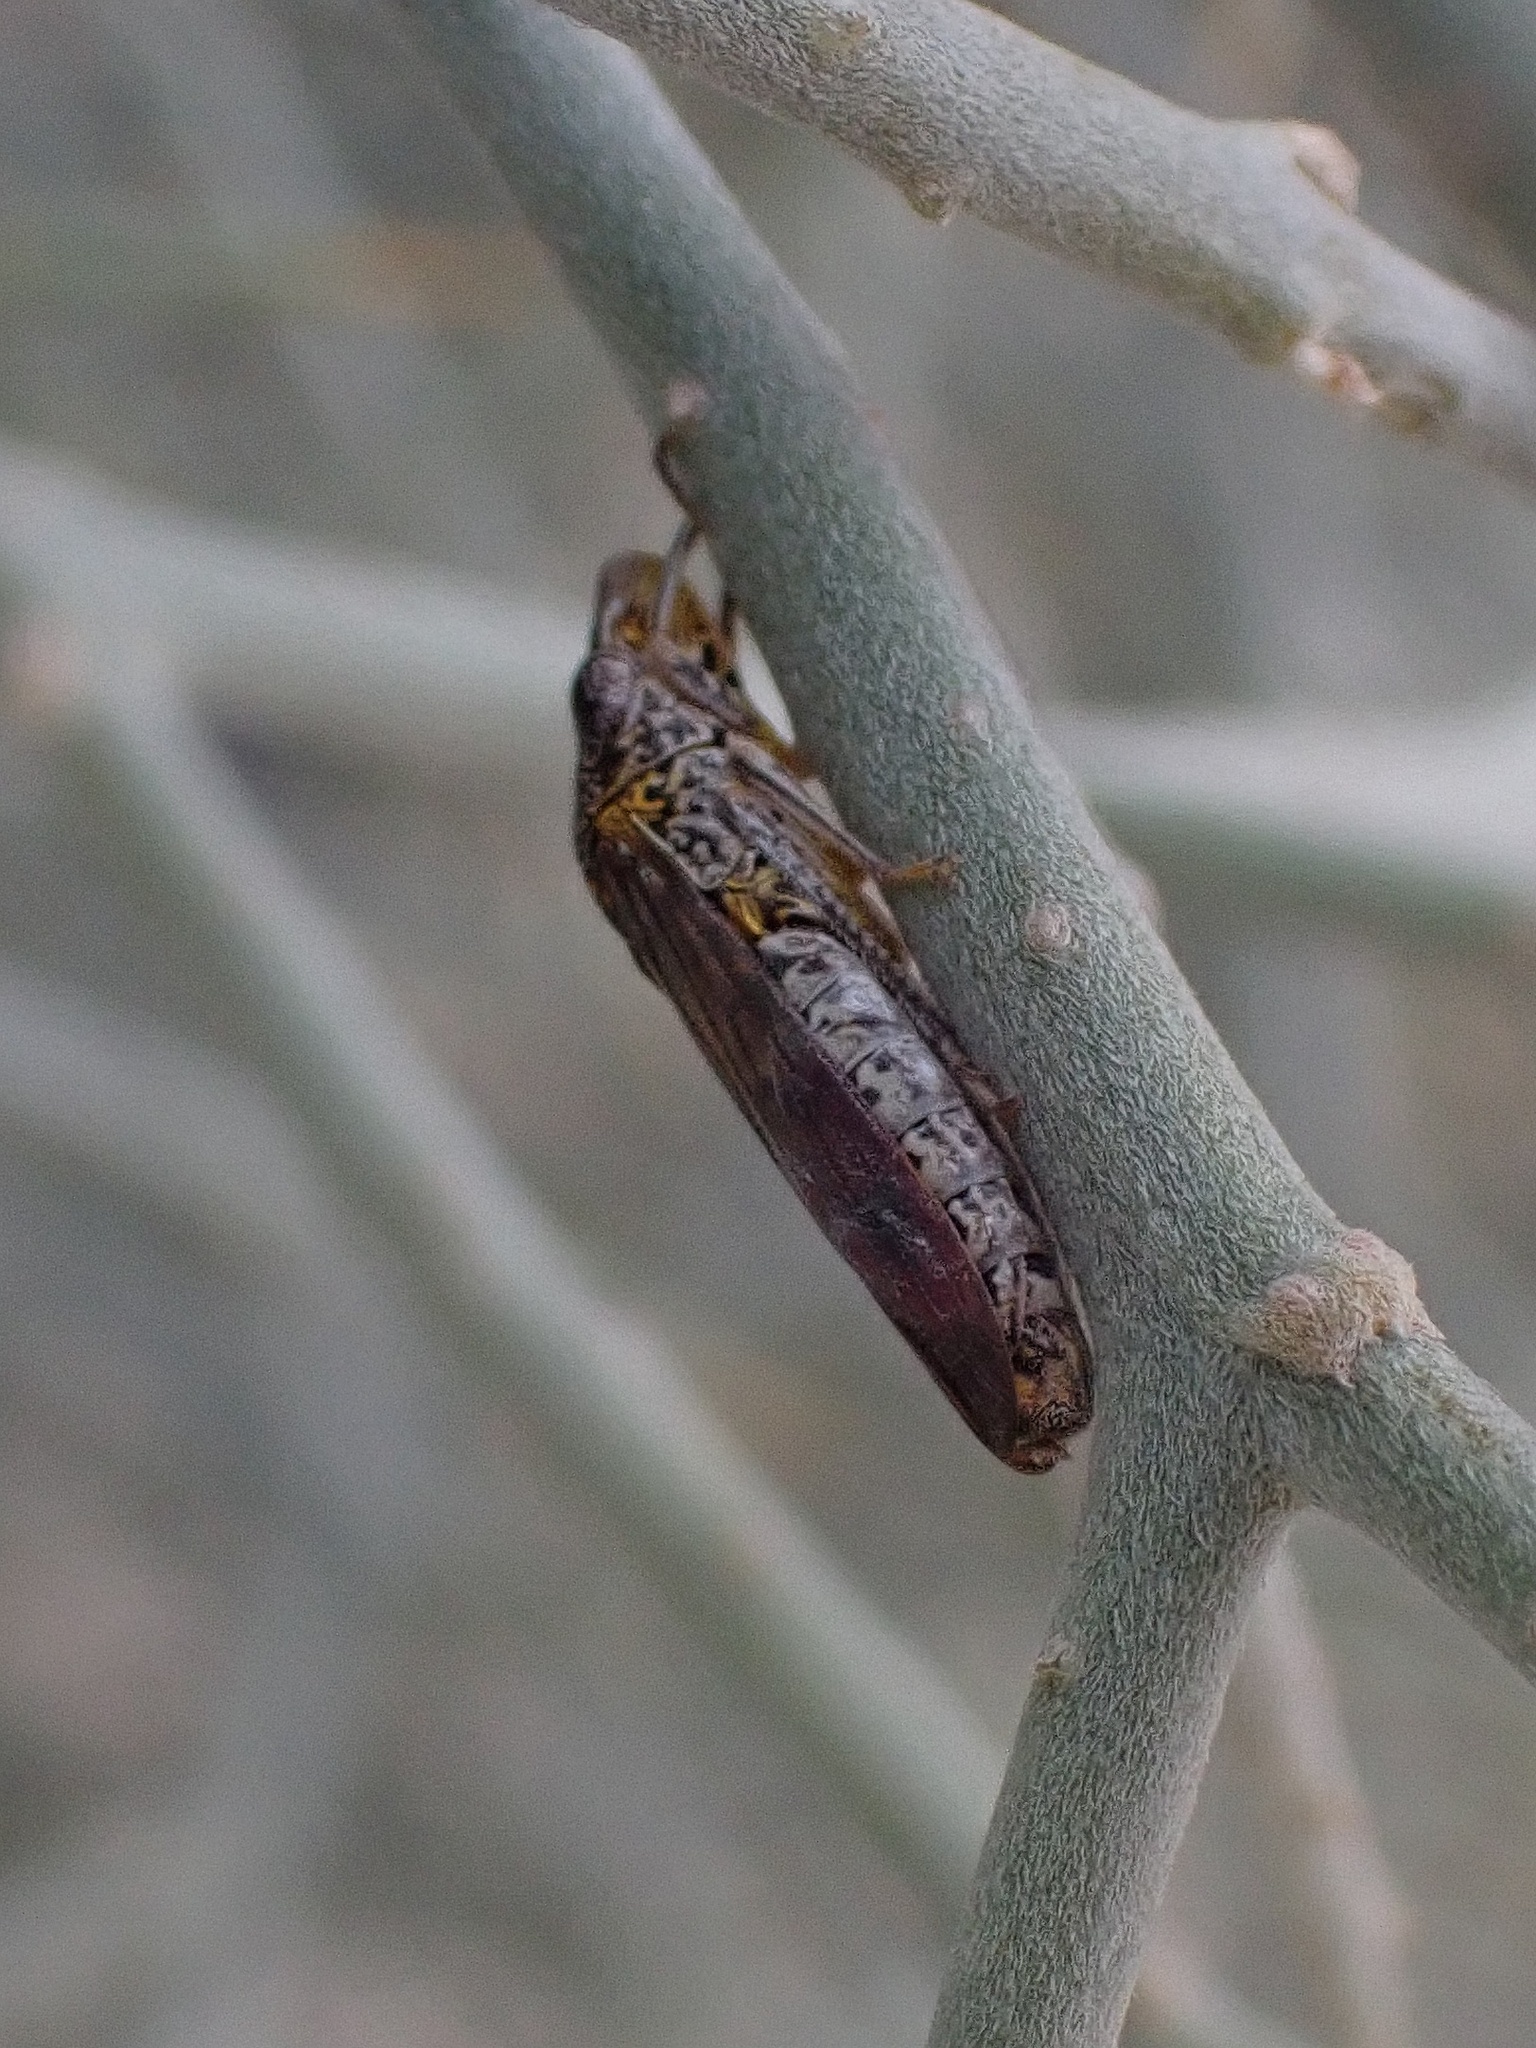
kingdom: Animalia
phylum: Arthropoda
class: Insecta
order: Hemiptera
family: Cicadellidae
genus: Homalodisca
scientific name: Homalodisca liturata
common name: Lacertate sharpshooter
